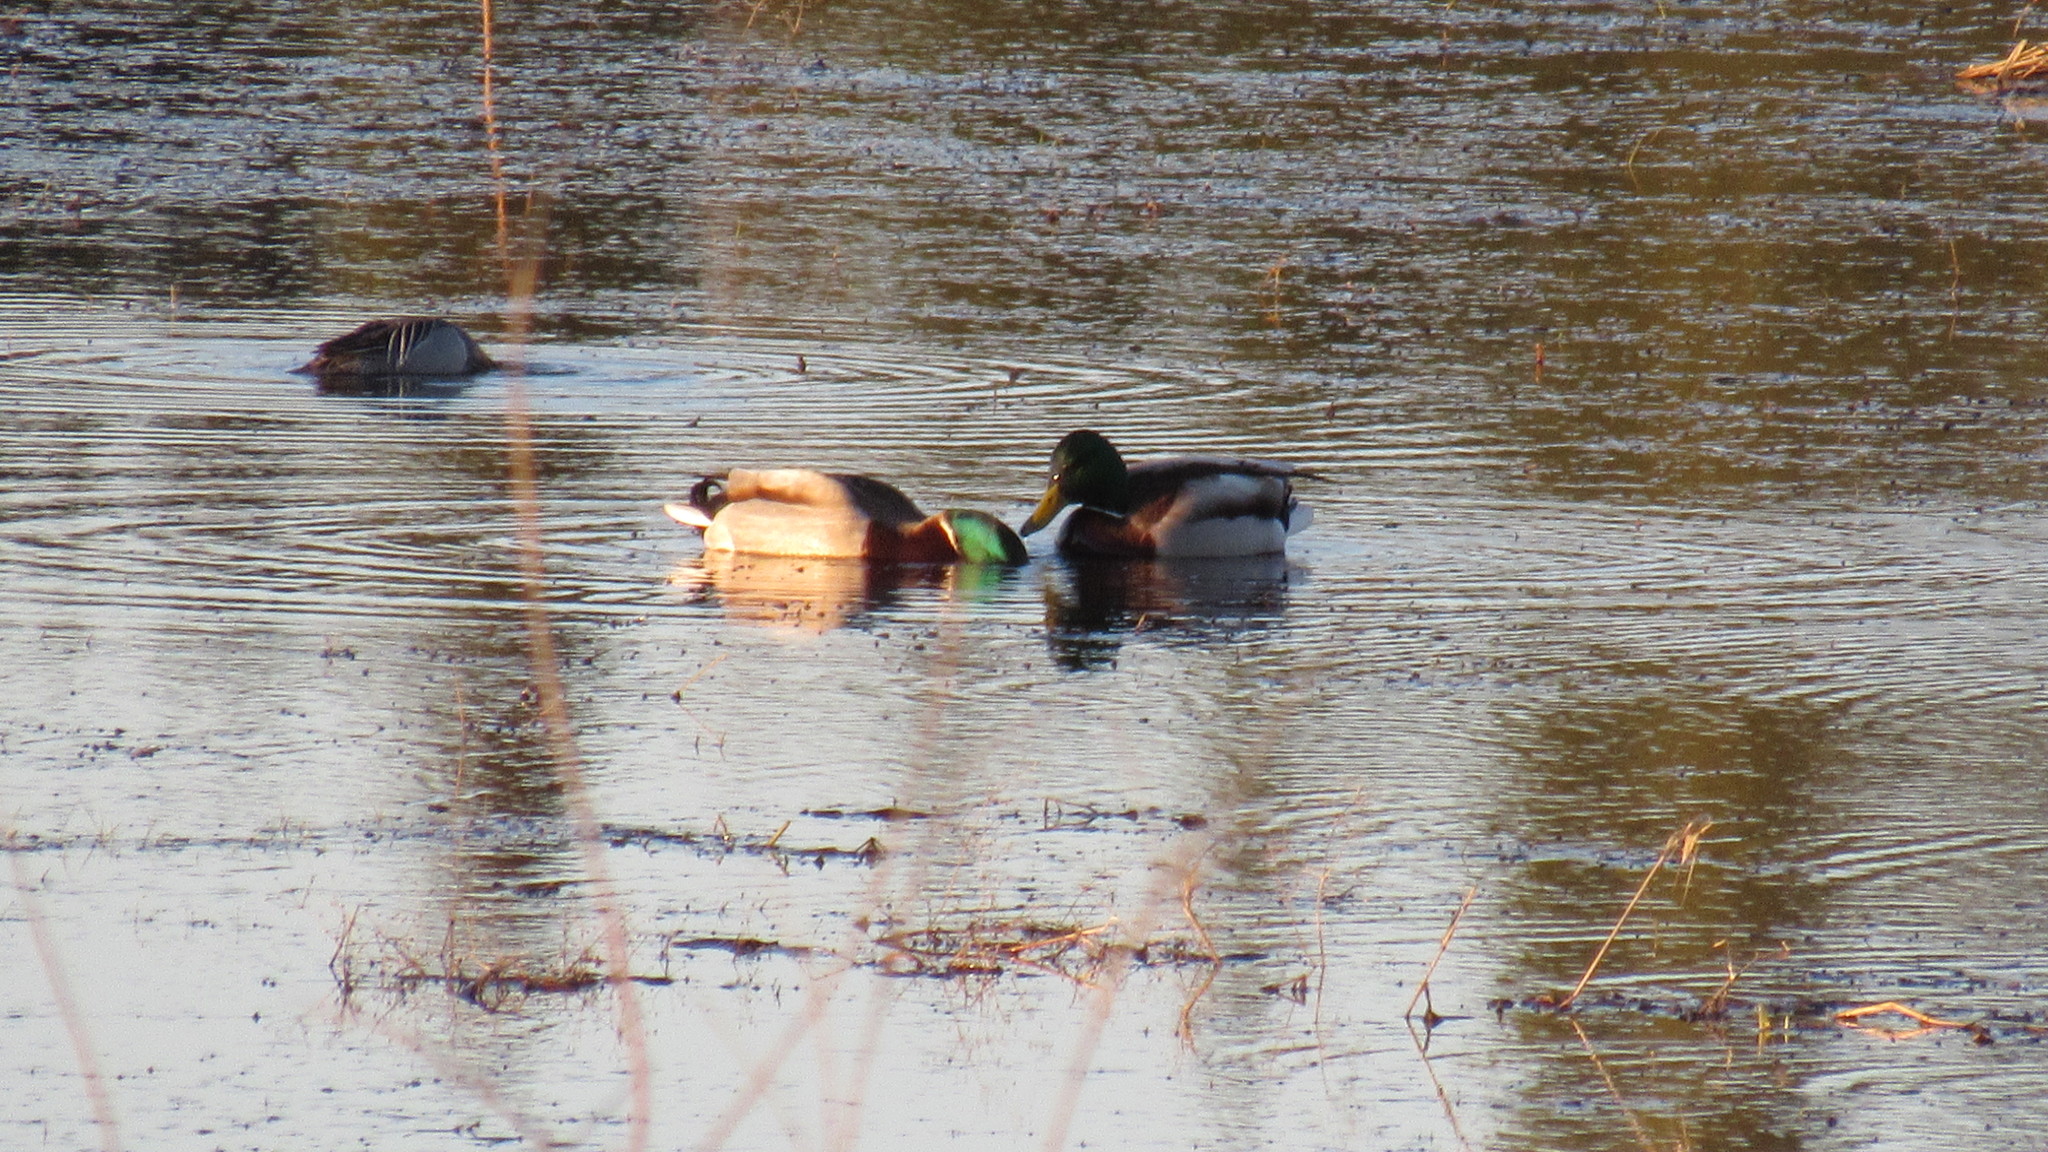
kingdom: Animalia
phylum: Chordata
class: Aves
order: Anseriformes
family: Anatidae
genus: Anas
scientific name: Anas platyrhynchos
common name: Mallard
